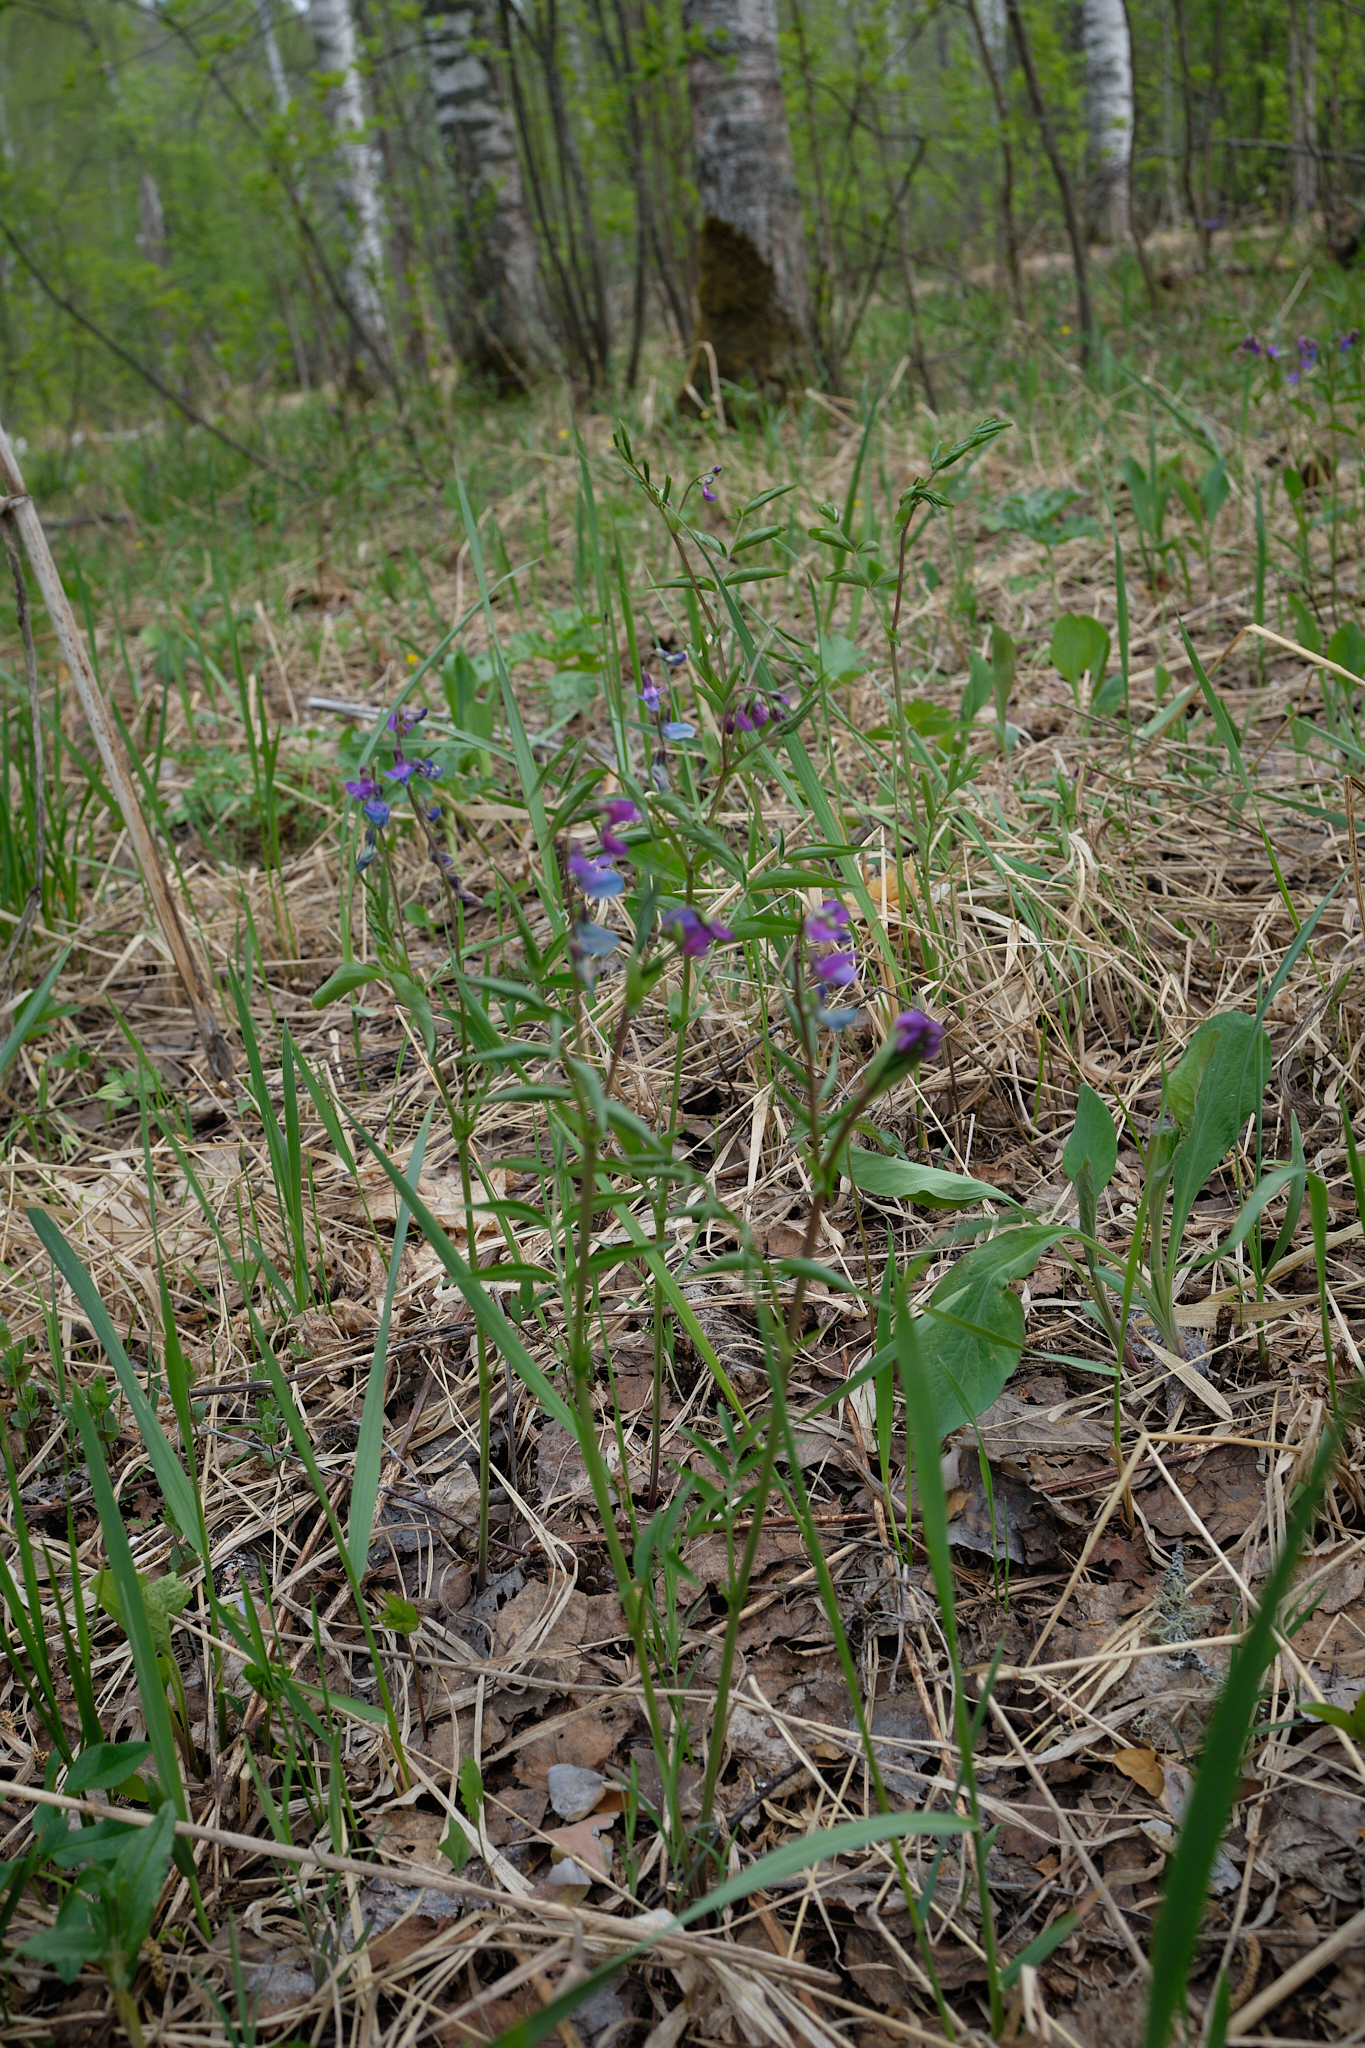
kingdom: Plantae
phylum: Tracheophyta
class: Magnoliopsida
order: Fabales
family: Fabaceae
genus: Lathyrus
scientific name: Lathyrus vernus
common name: Spring pea
